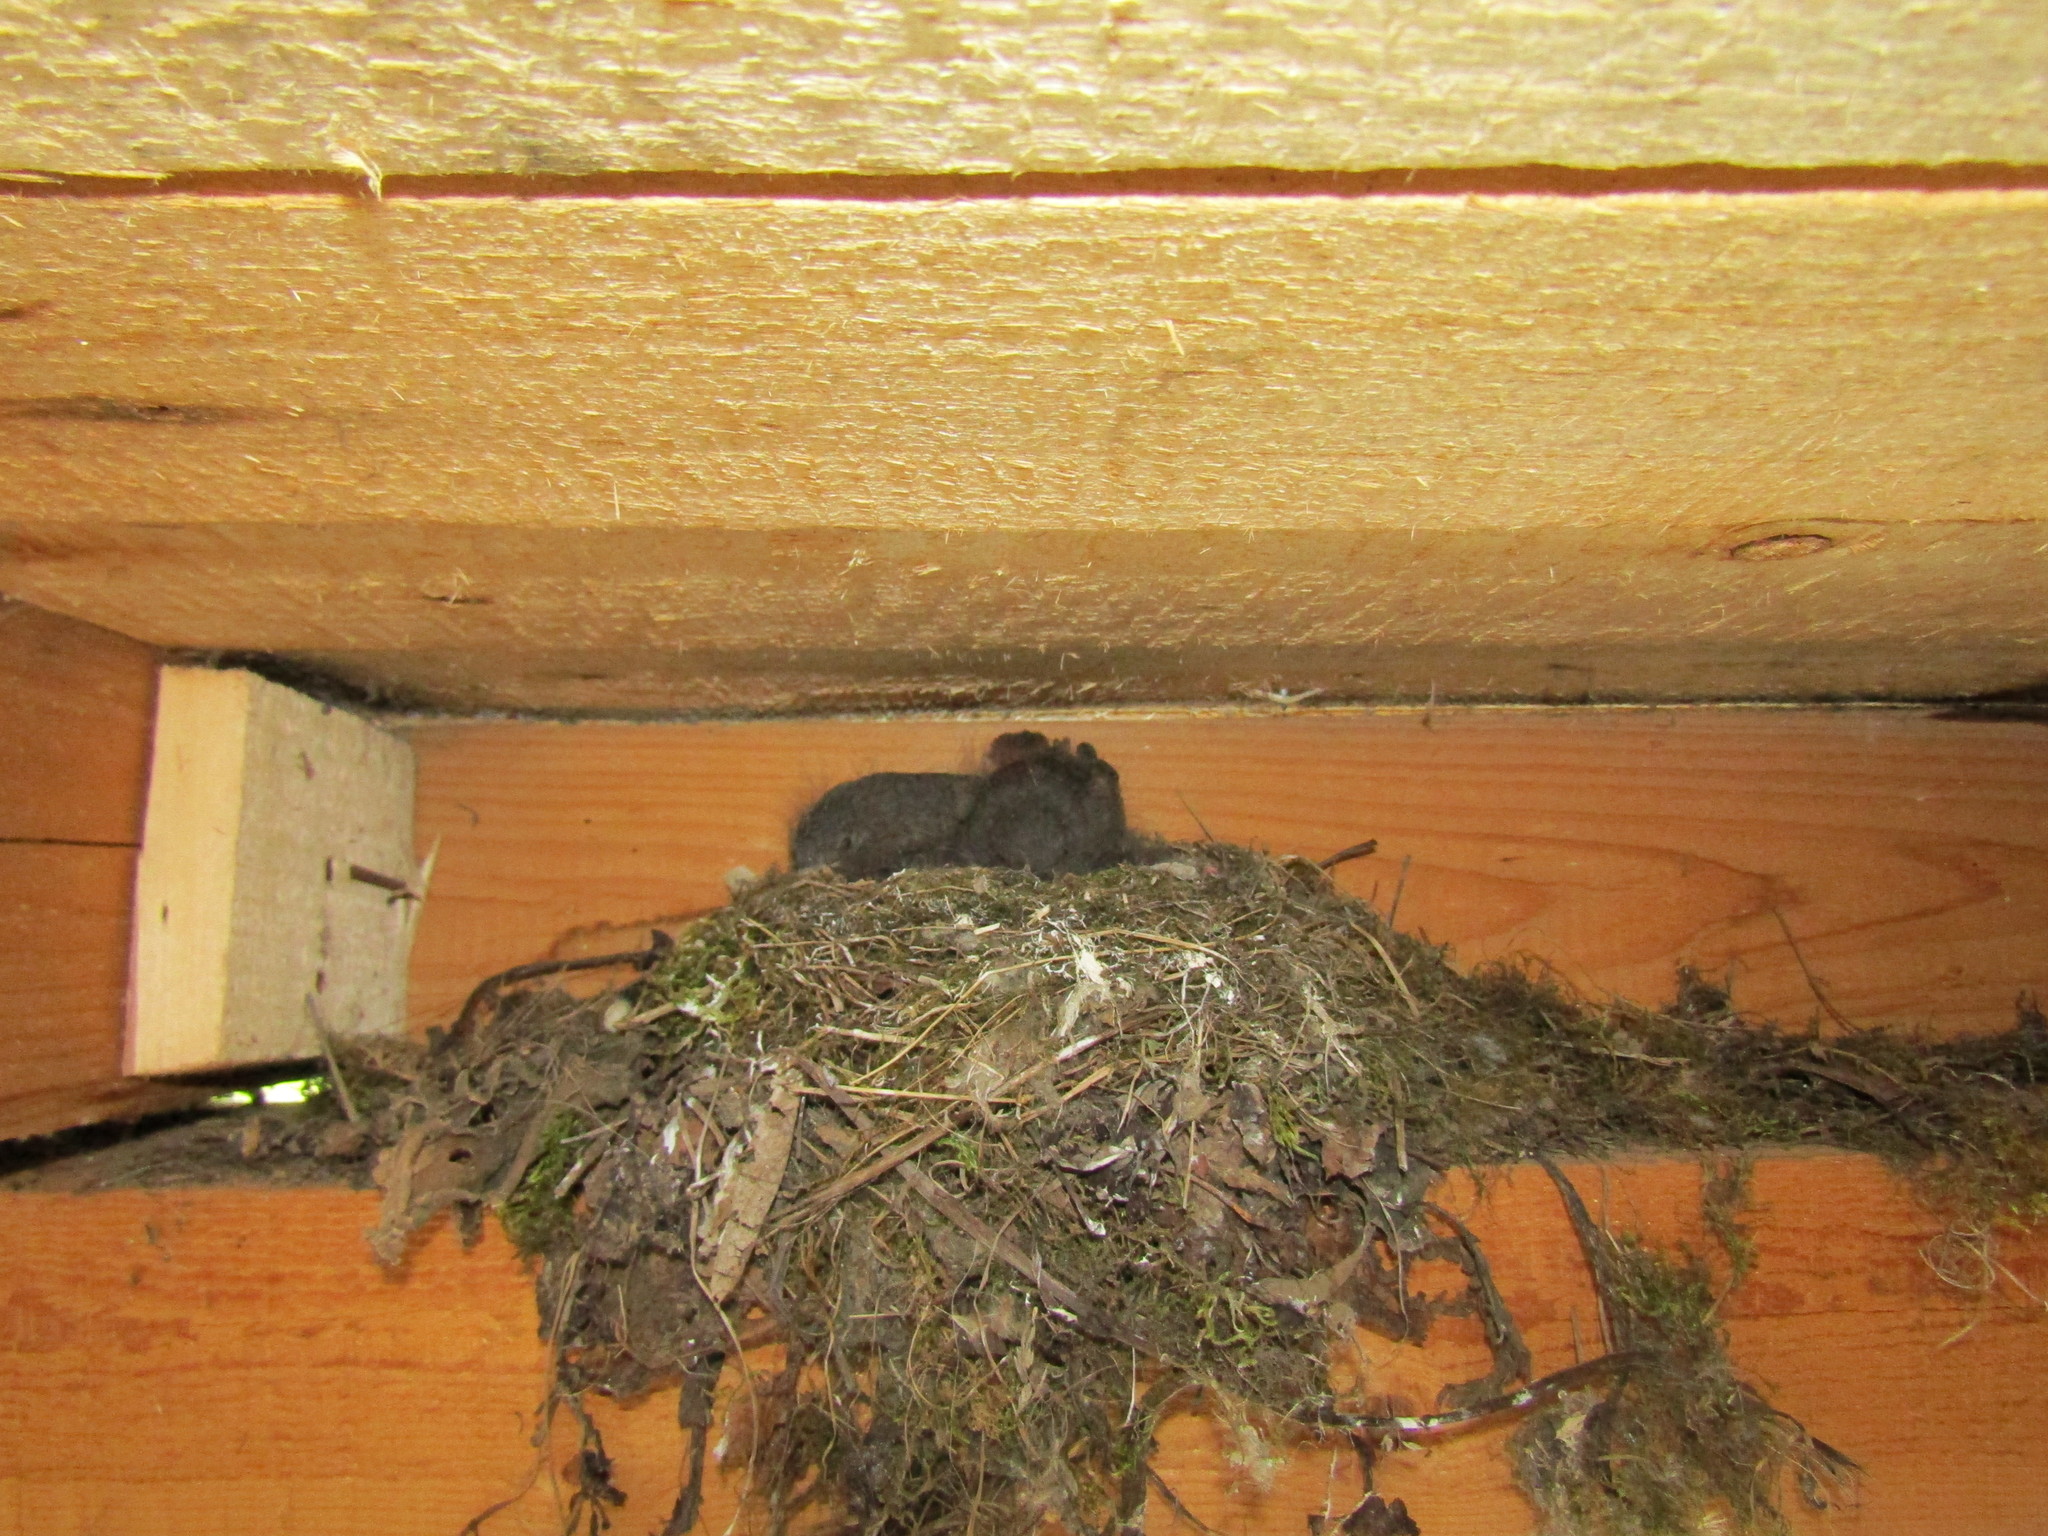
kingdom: Animalia
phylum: Chordata
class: Aves
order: Passeriformes
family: Muscicapidae
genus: Phoenicurus
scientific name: Phoenicurus ochruros
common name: Black redstart
